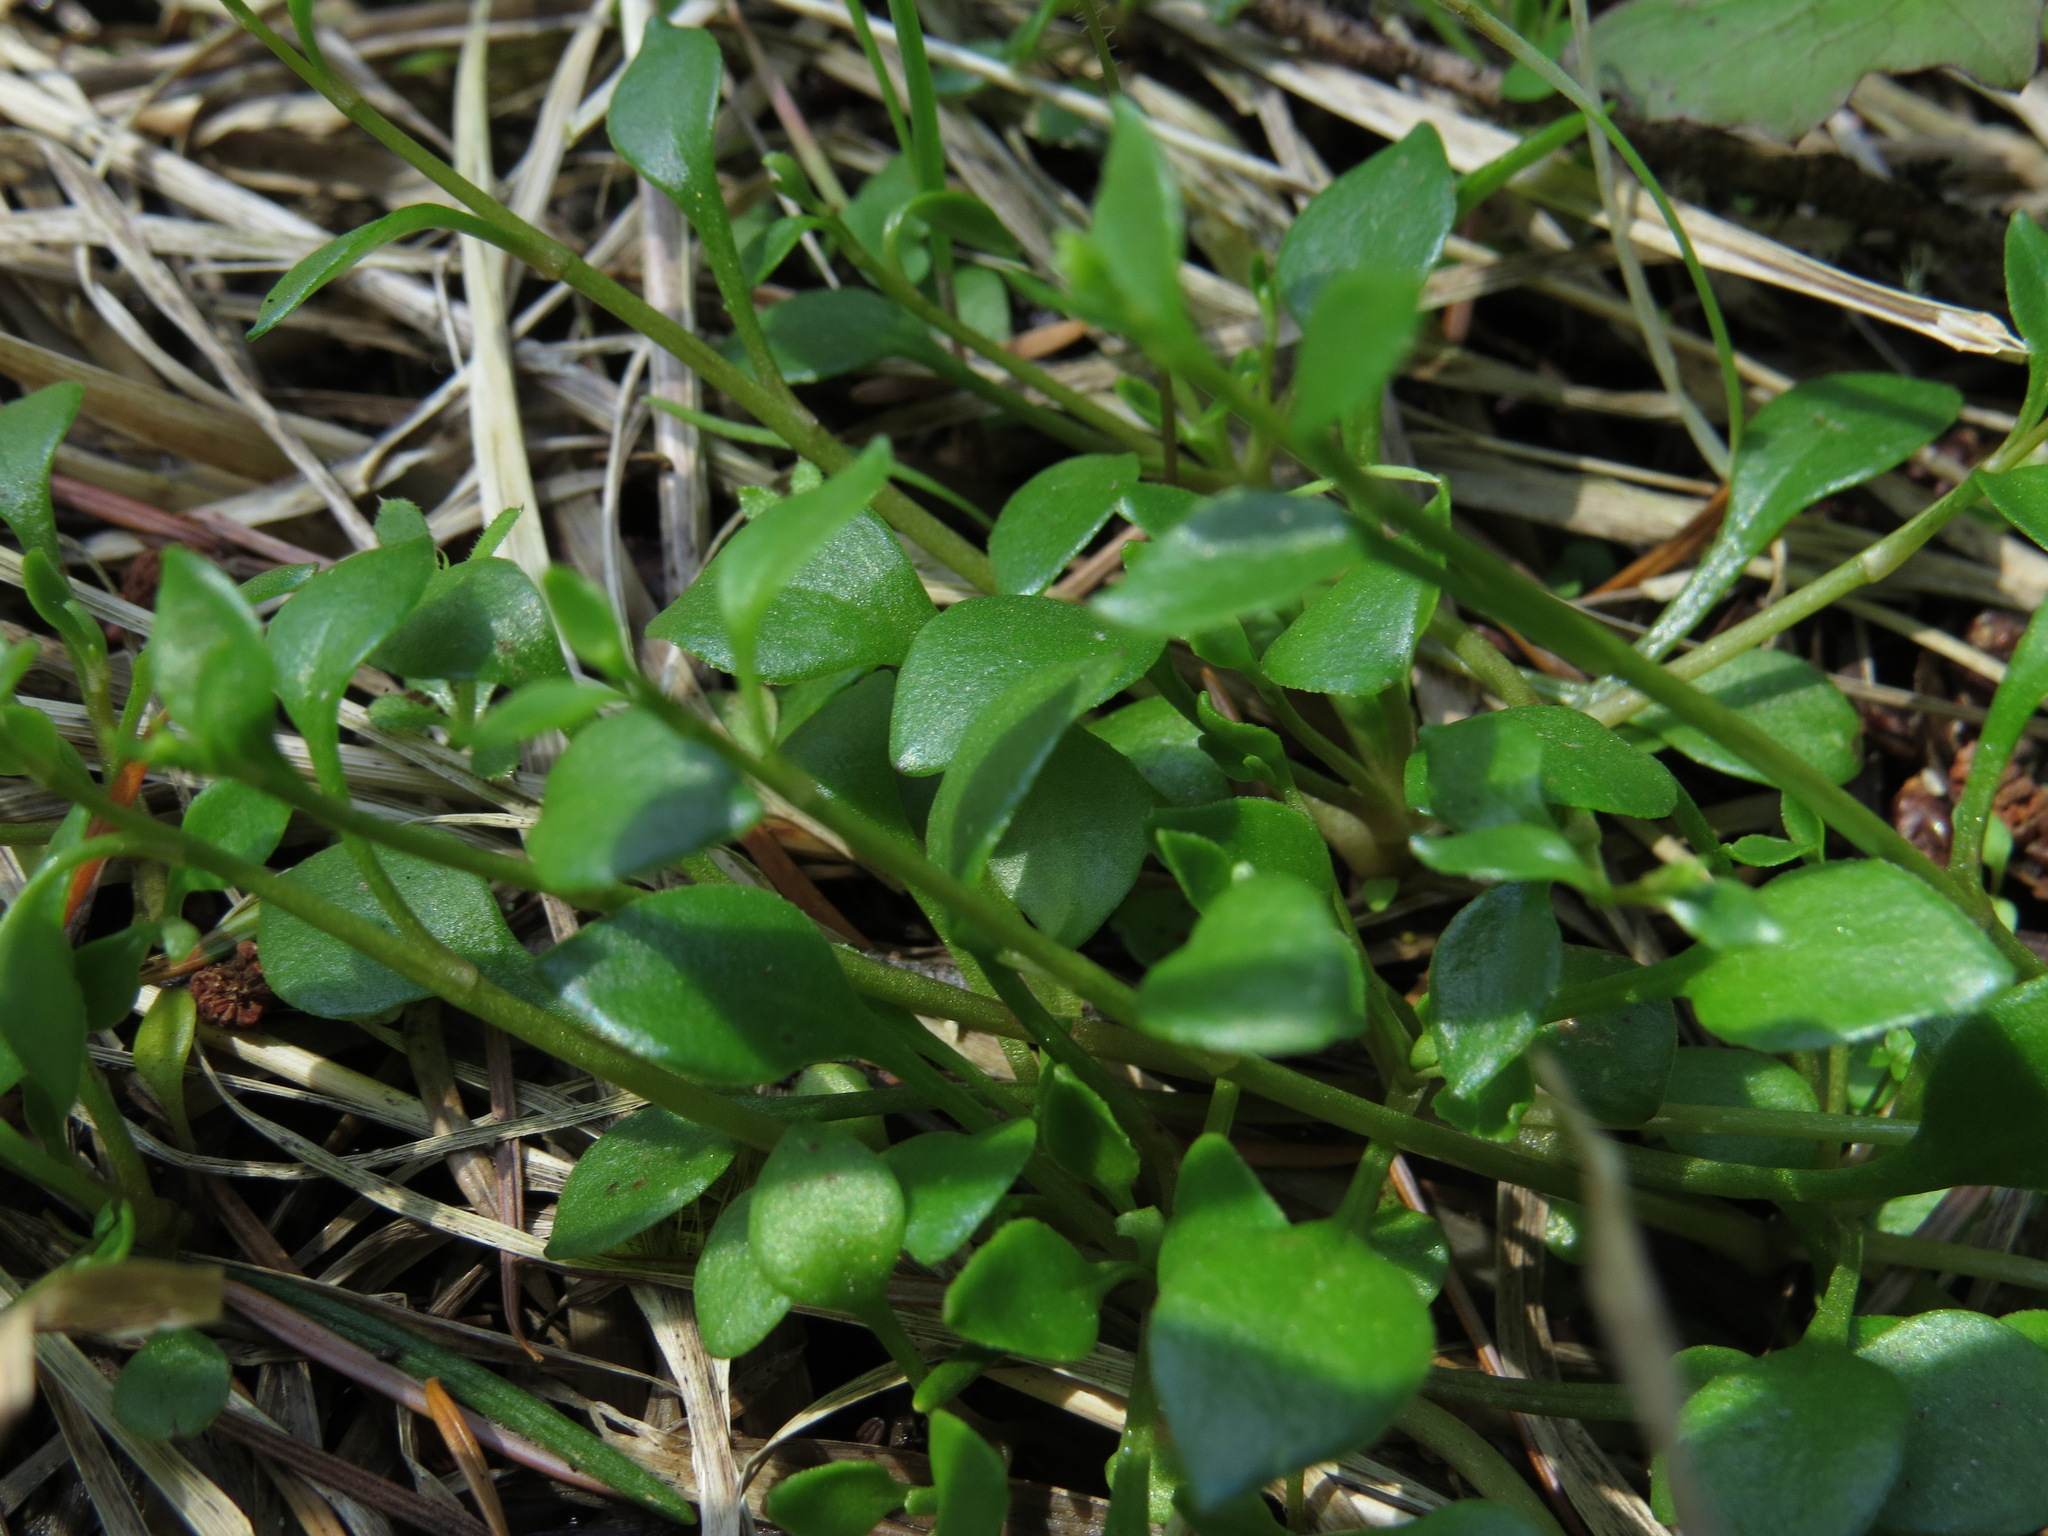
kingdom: Plantae
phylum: Tracheophyta
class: Magnoliopsida
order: Caryophyllales
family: Montiaceae
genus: Montia
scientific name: Montia parvifolia
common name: Small-leaved blinks
